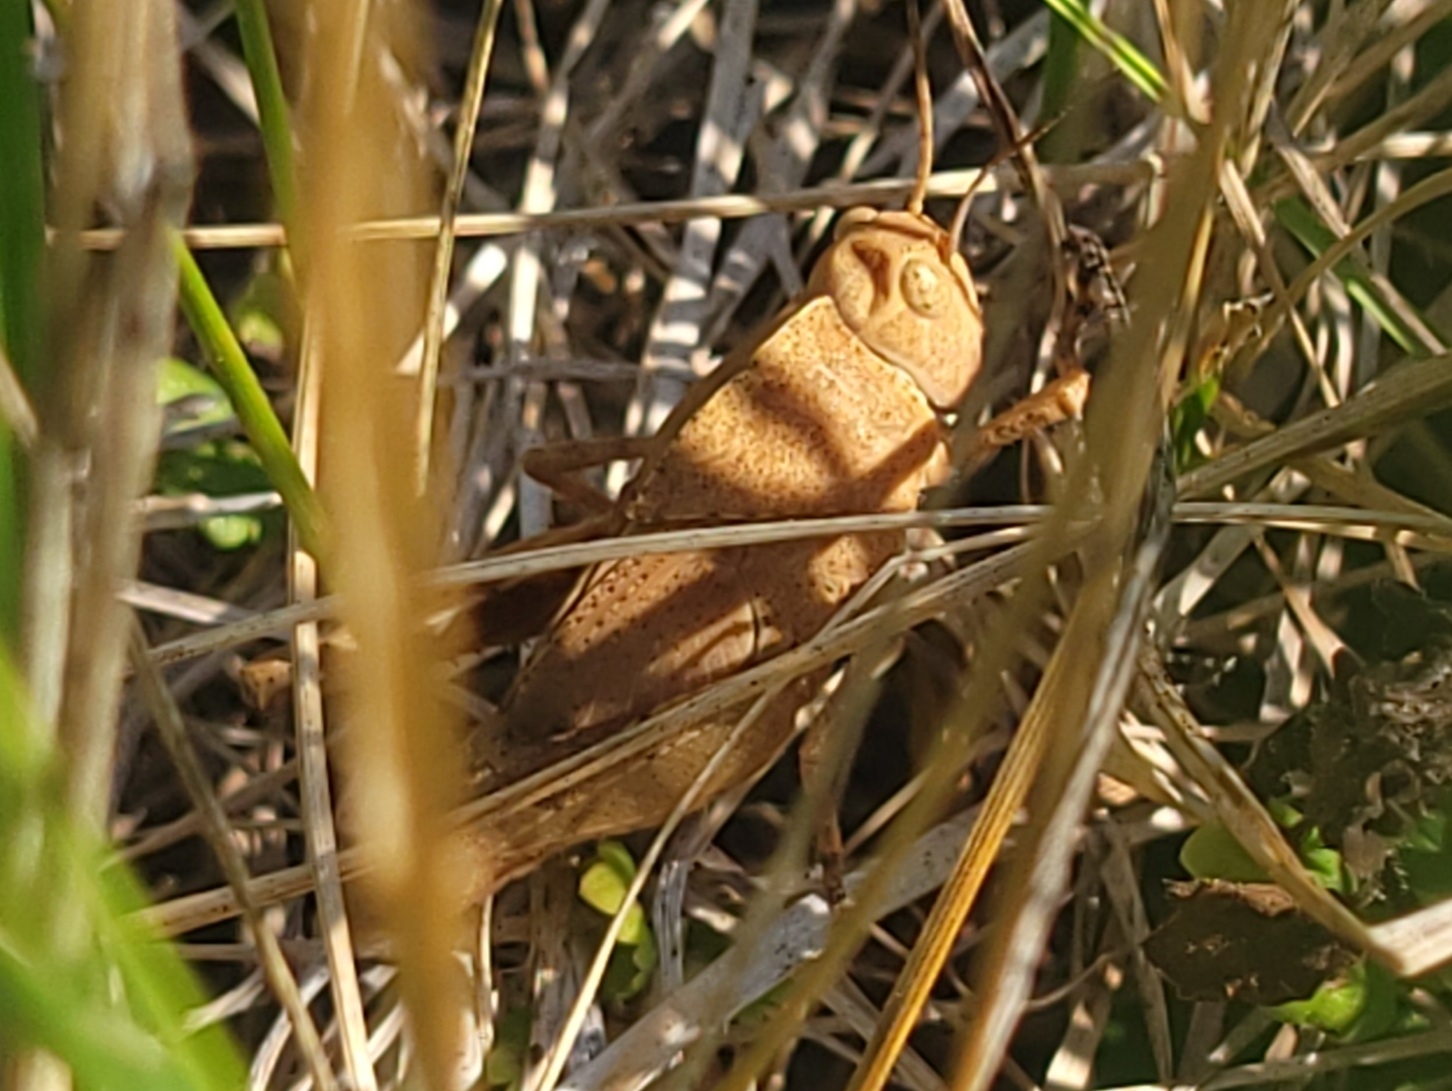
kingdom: Animalia
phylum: Arthropoda
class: Insecta
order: Orthoptera
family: Acrididae
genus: Dissosteira
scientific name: Dissosteira carolina
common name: Carolina grasshopper
